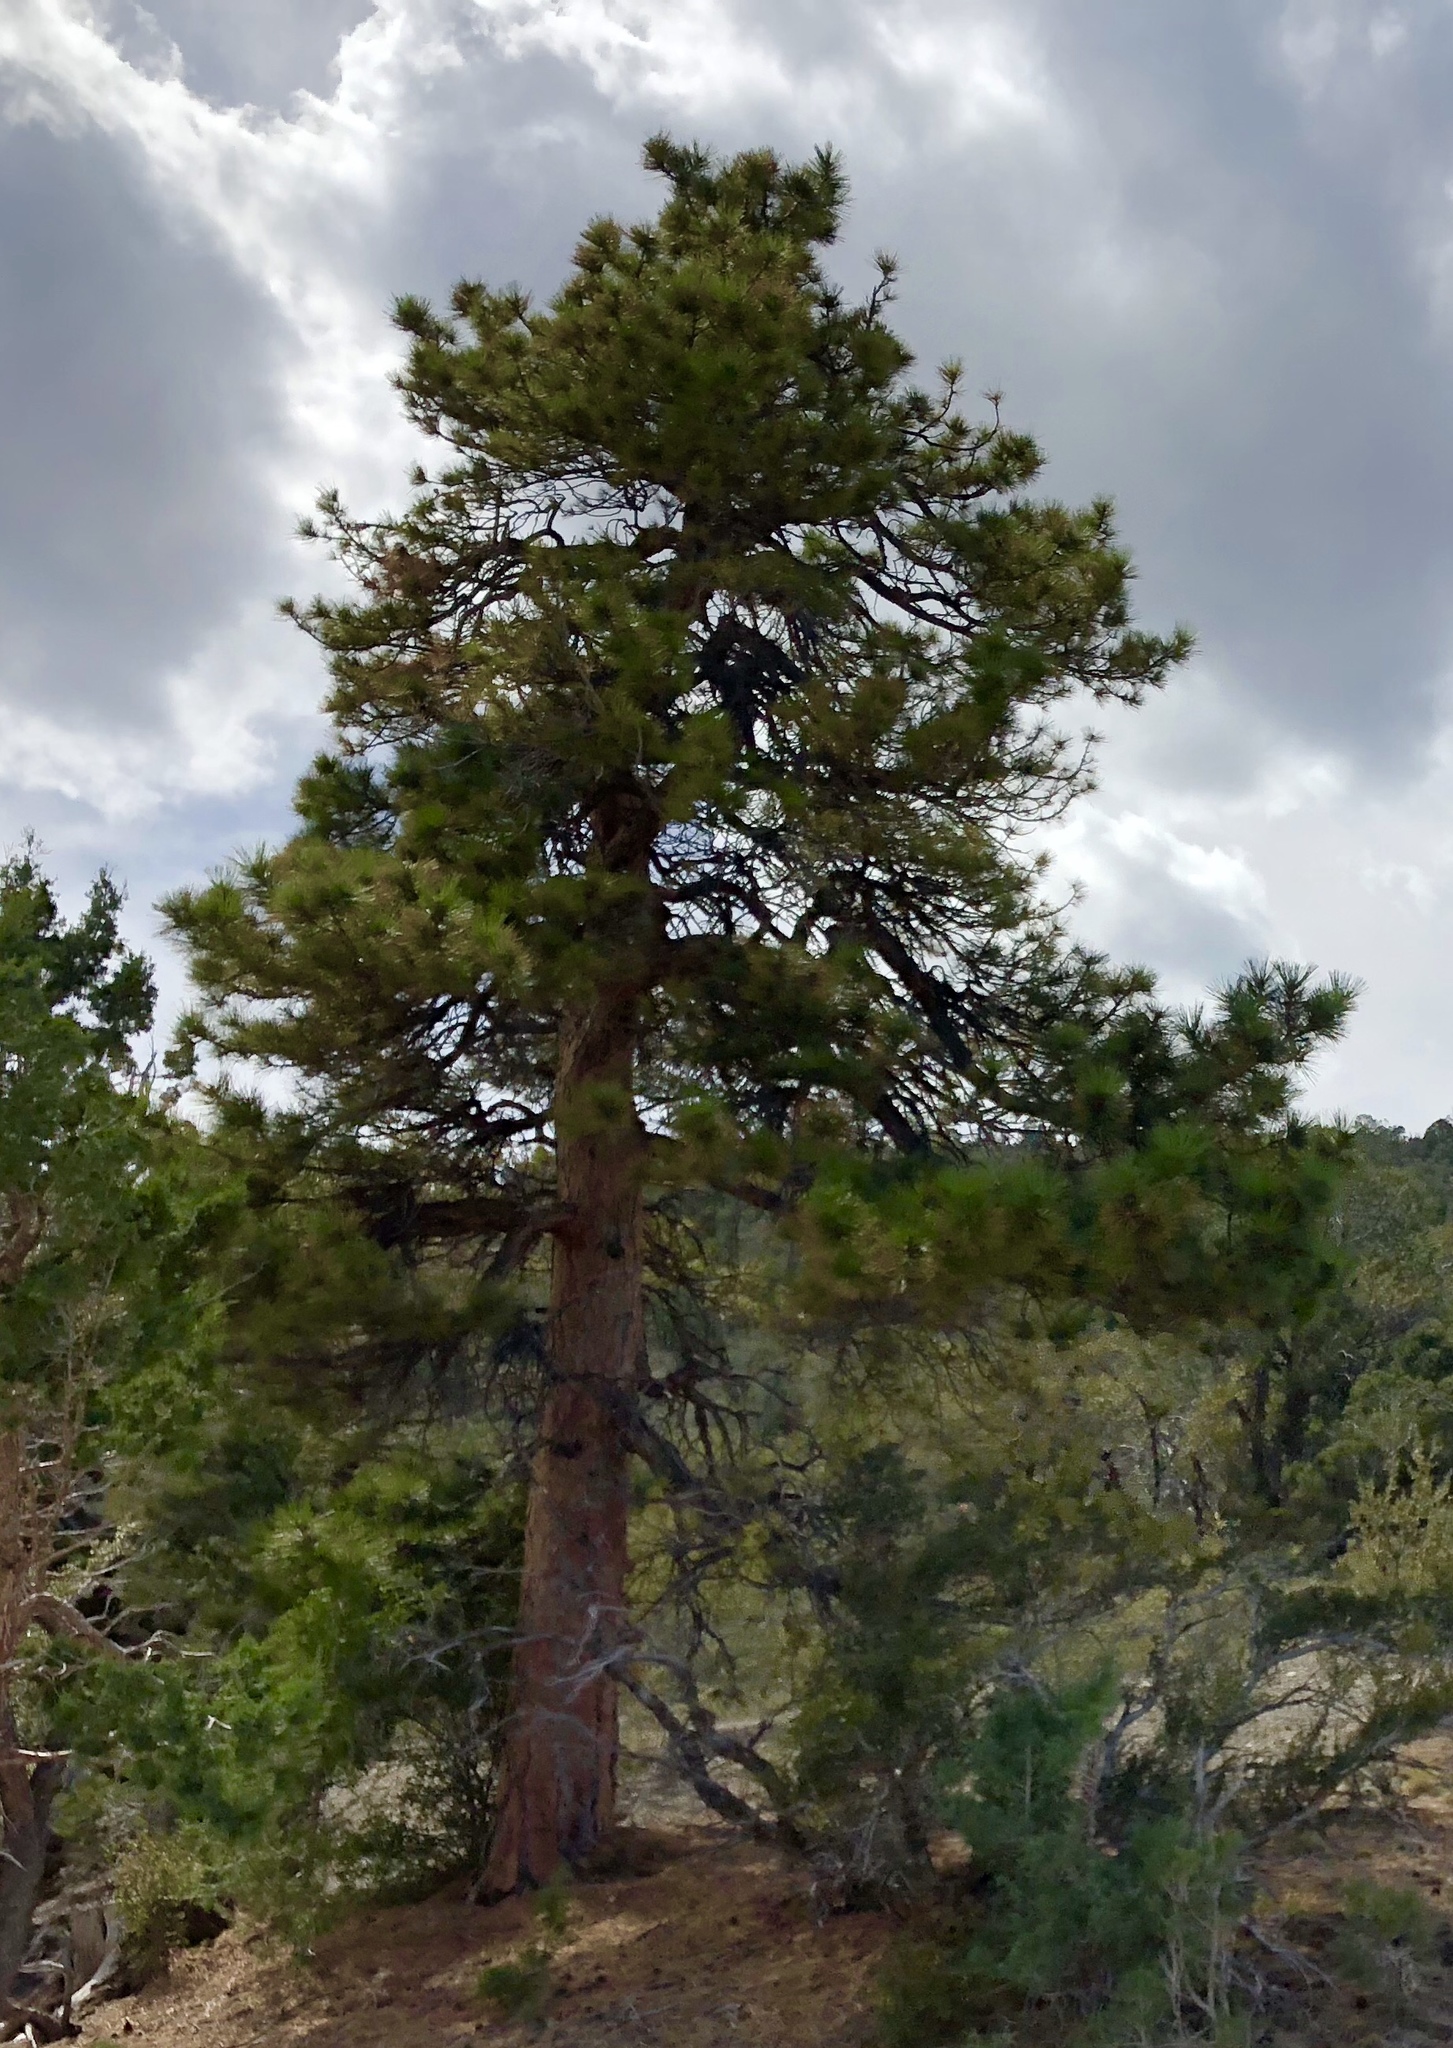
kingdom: Plantae
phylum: Tracheophyta
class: Pinopsida
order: Pinales
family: Pinaceae
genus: Pinus
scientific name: Pinus ponderosa
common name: Western yellow-pine
